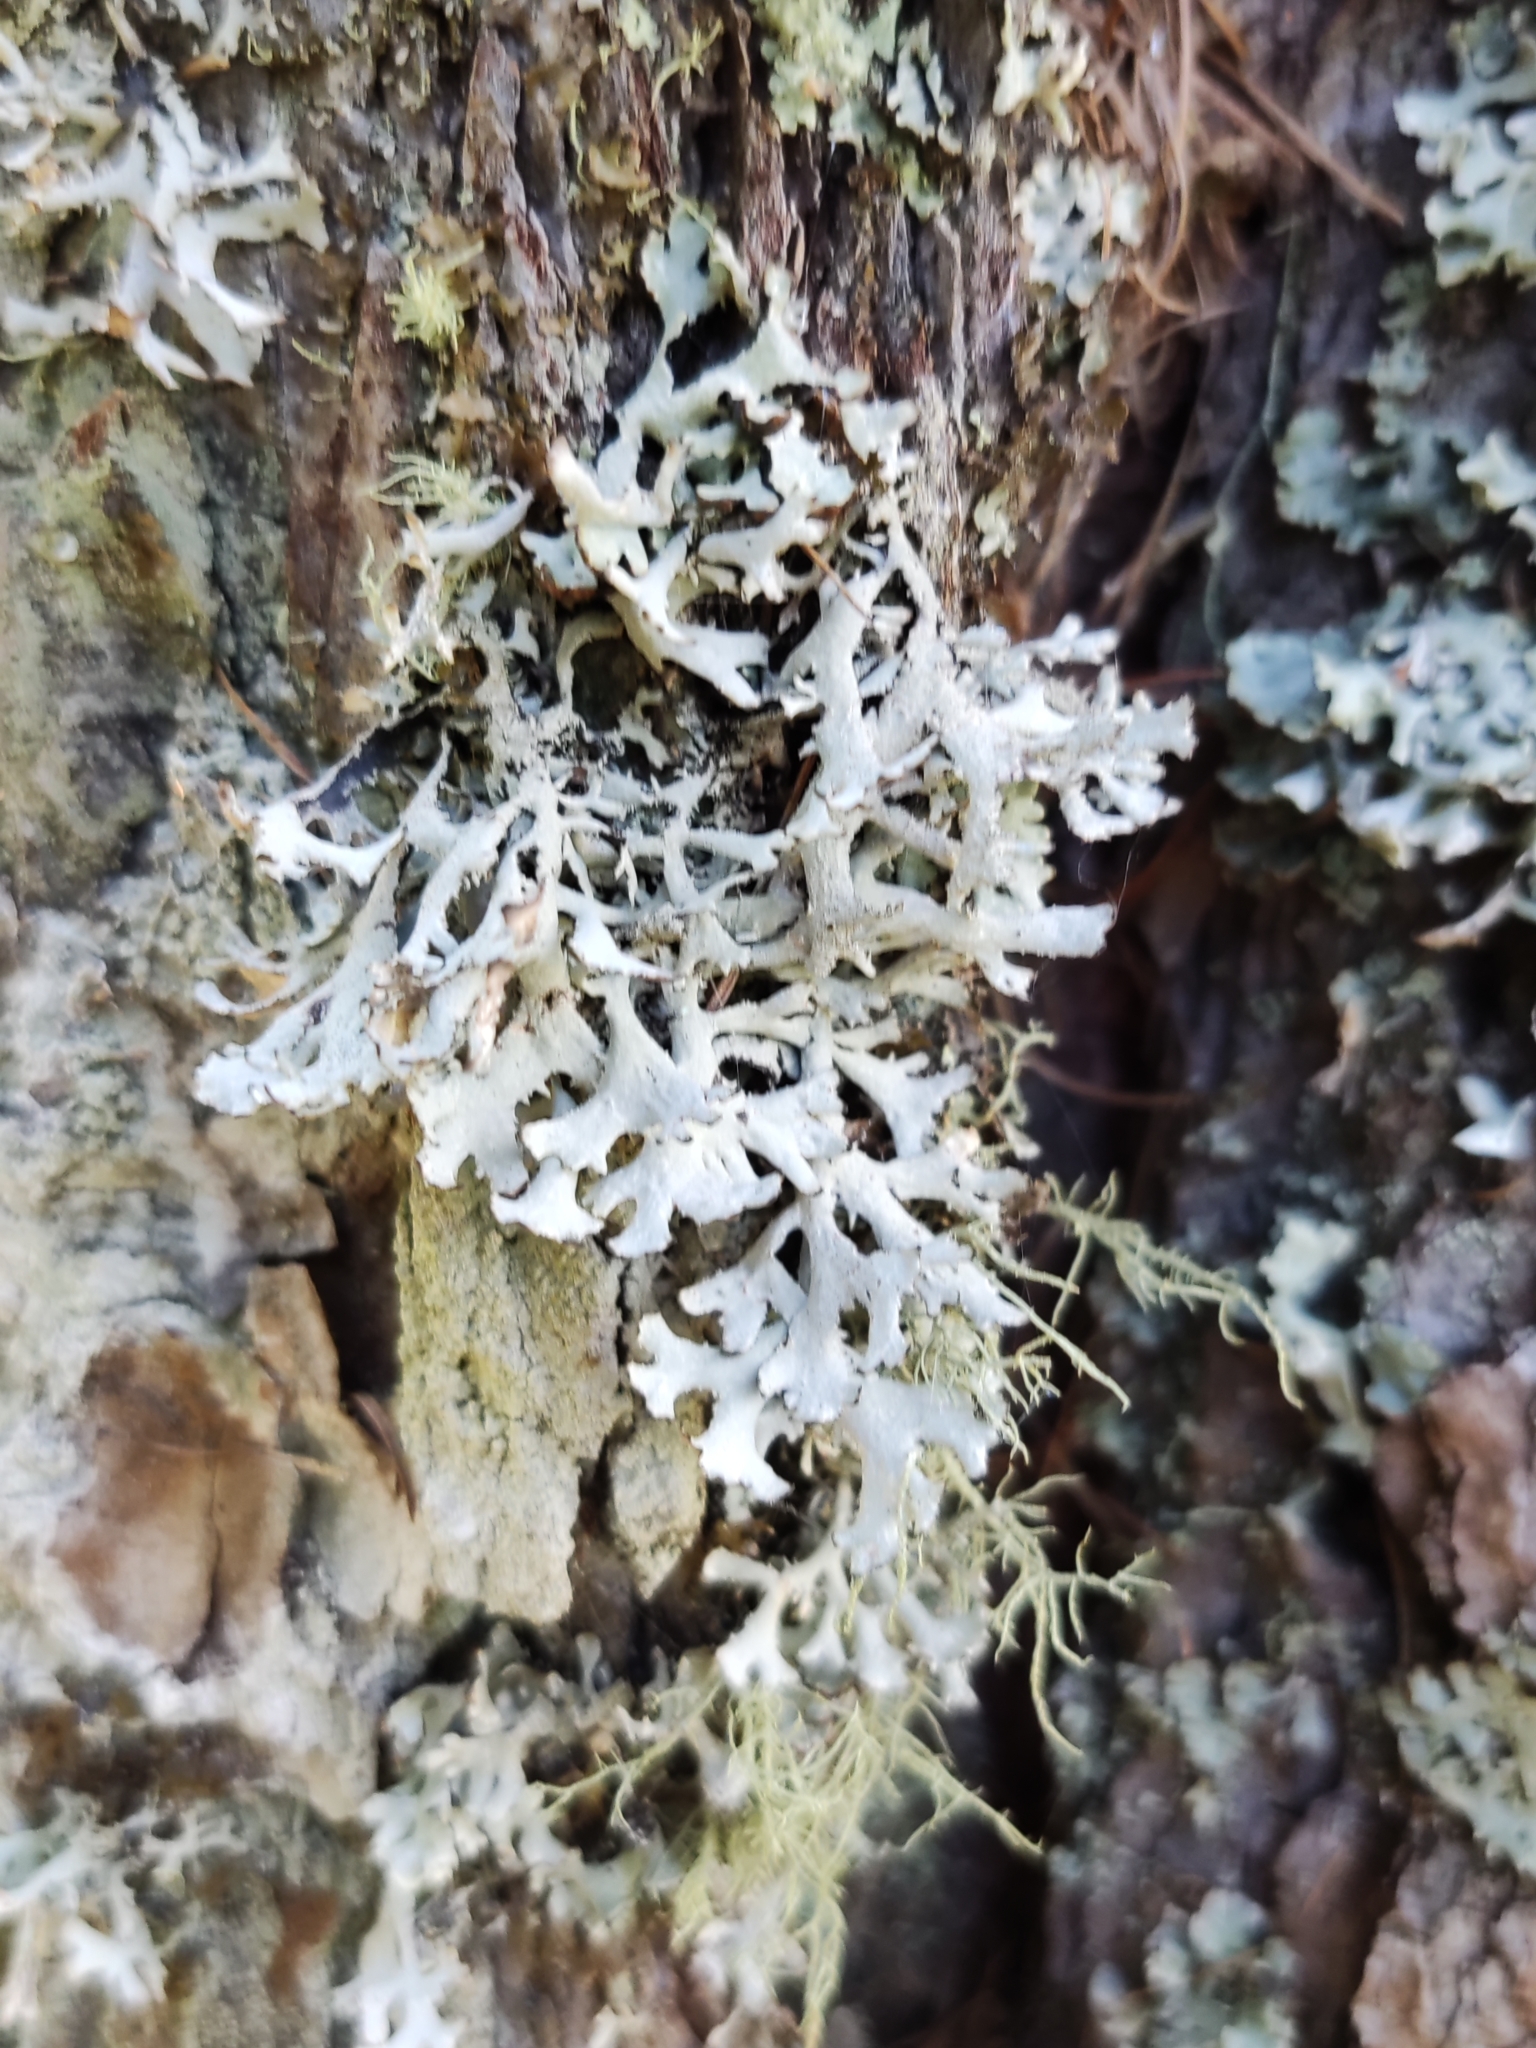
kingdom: Fungi
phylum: Ascomycota
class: Lecanoromycetes
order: Lecanorales
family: Parmeliaceae
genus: Pseudevernia
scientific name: Pseudevernia furfuracea
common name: Tree moss
